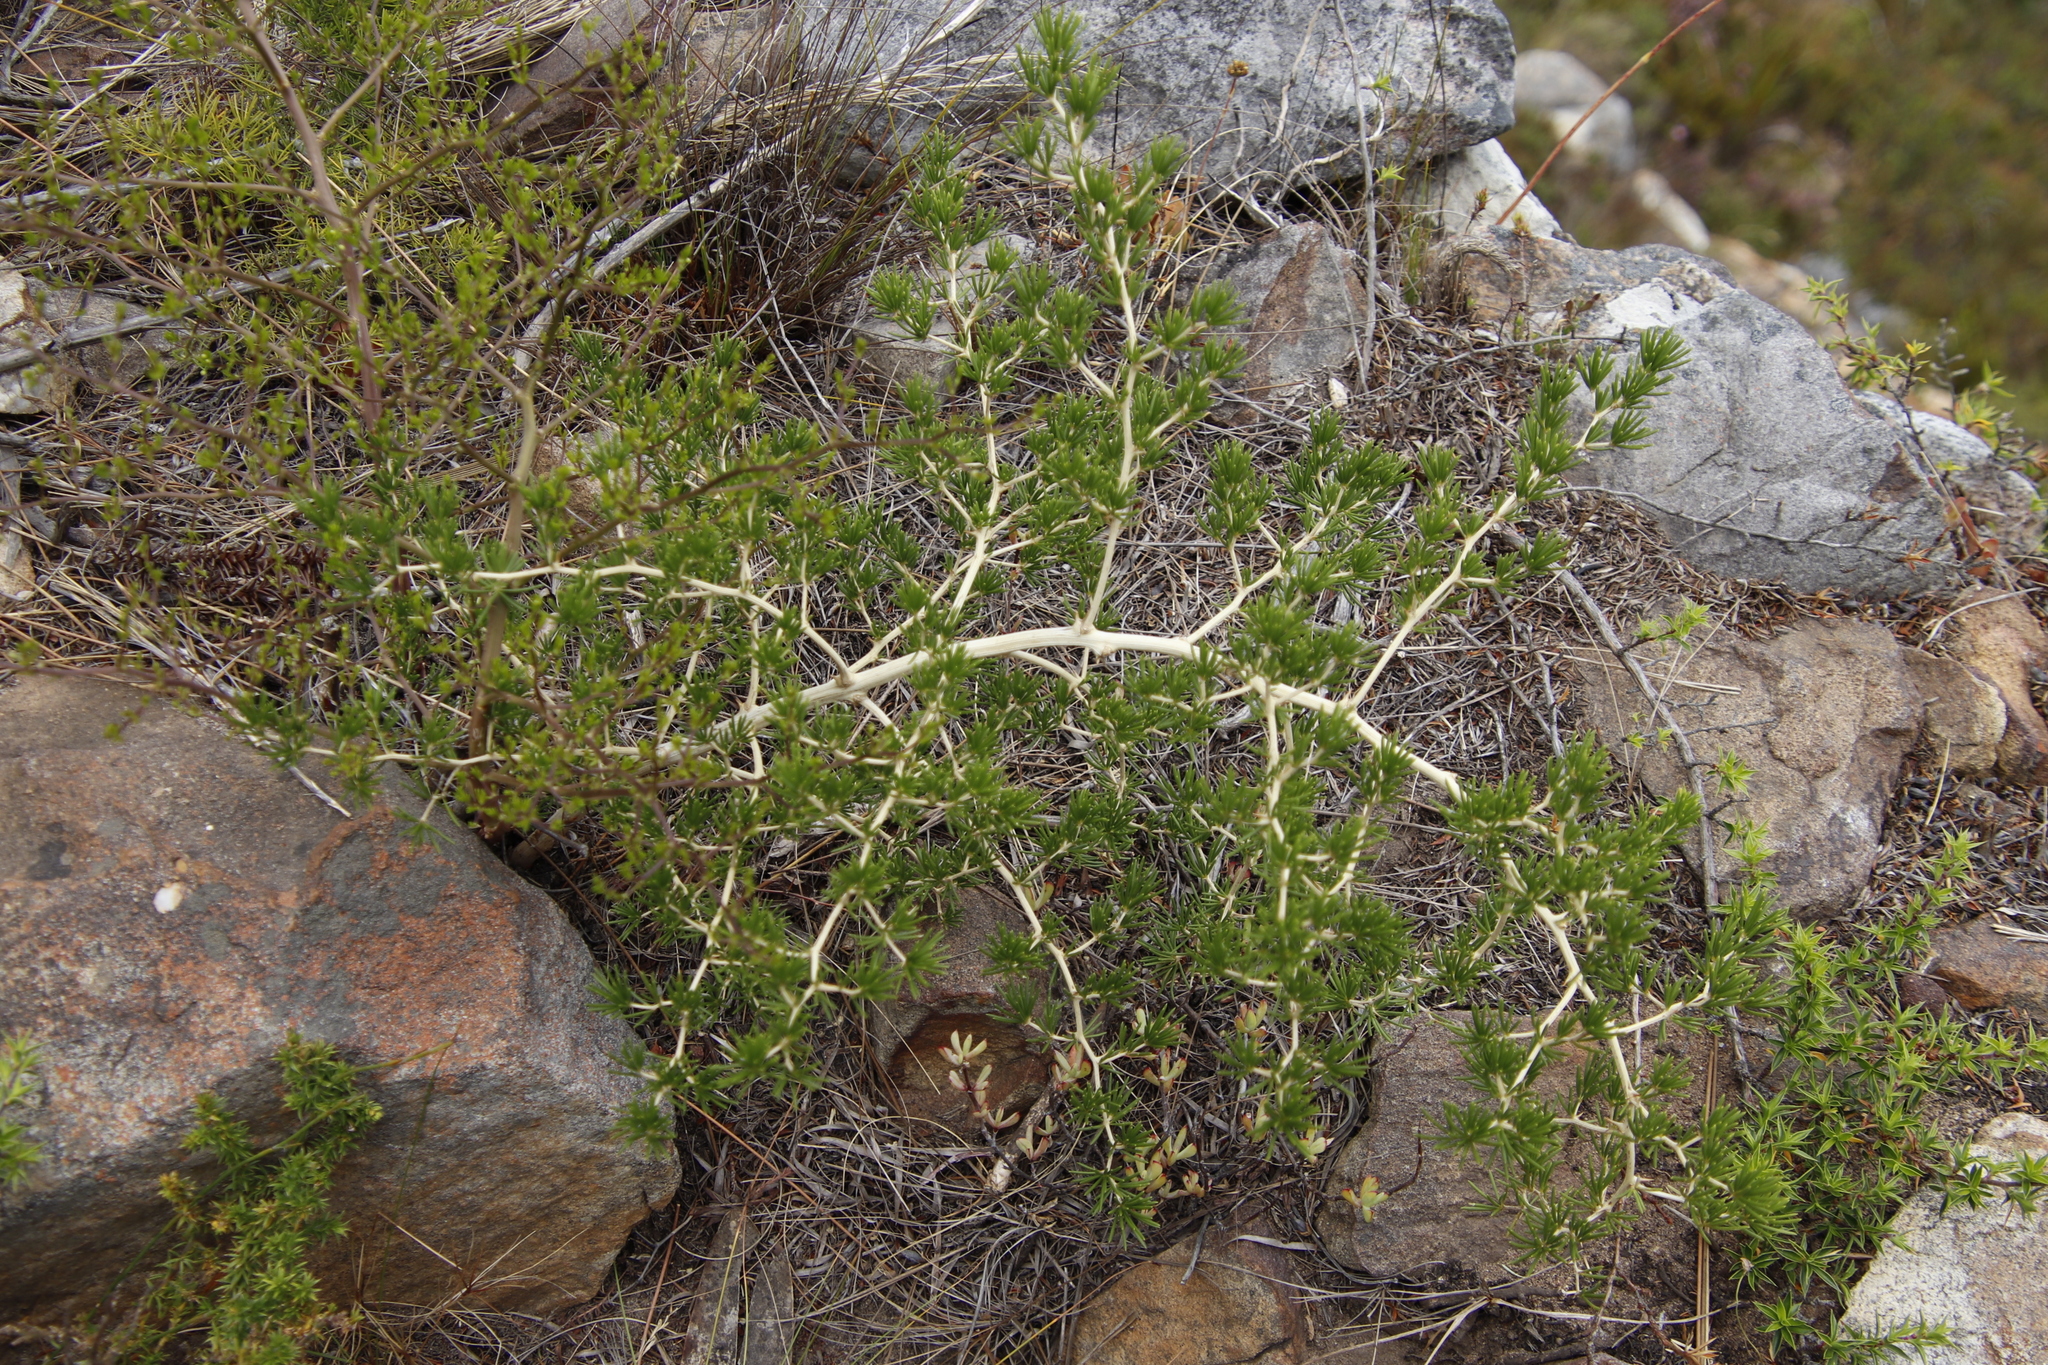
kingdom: Plantae
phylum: Tracheophyta
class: Liliopsida
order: Asparagales
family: Asparagaceae
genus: Asparagus
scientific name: Asparagus lignosus
